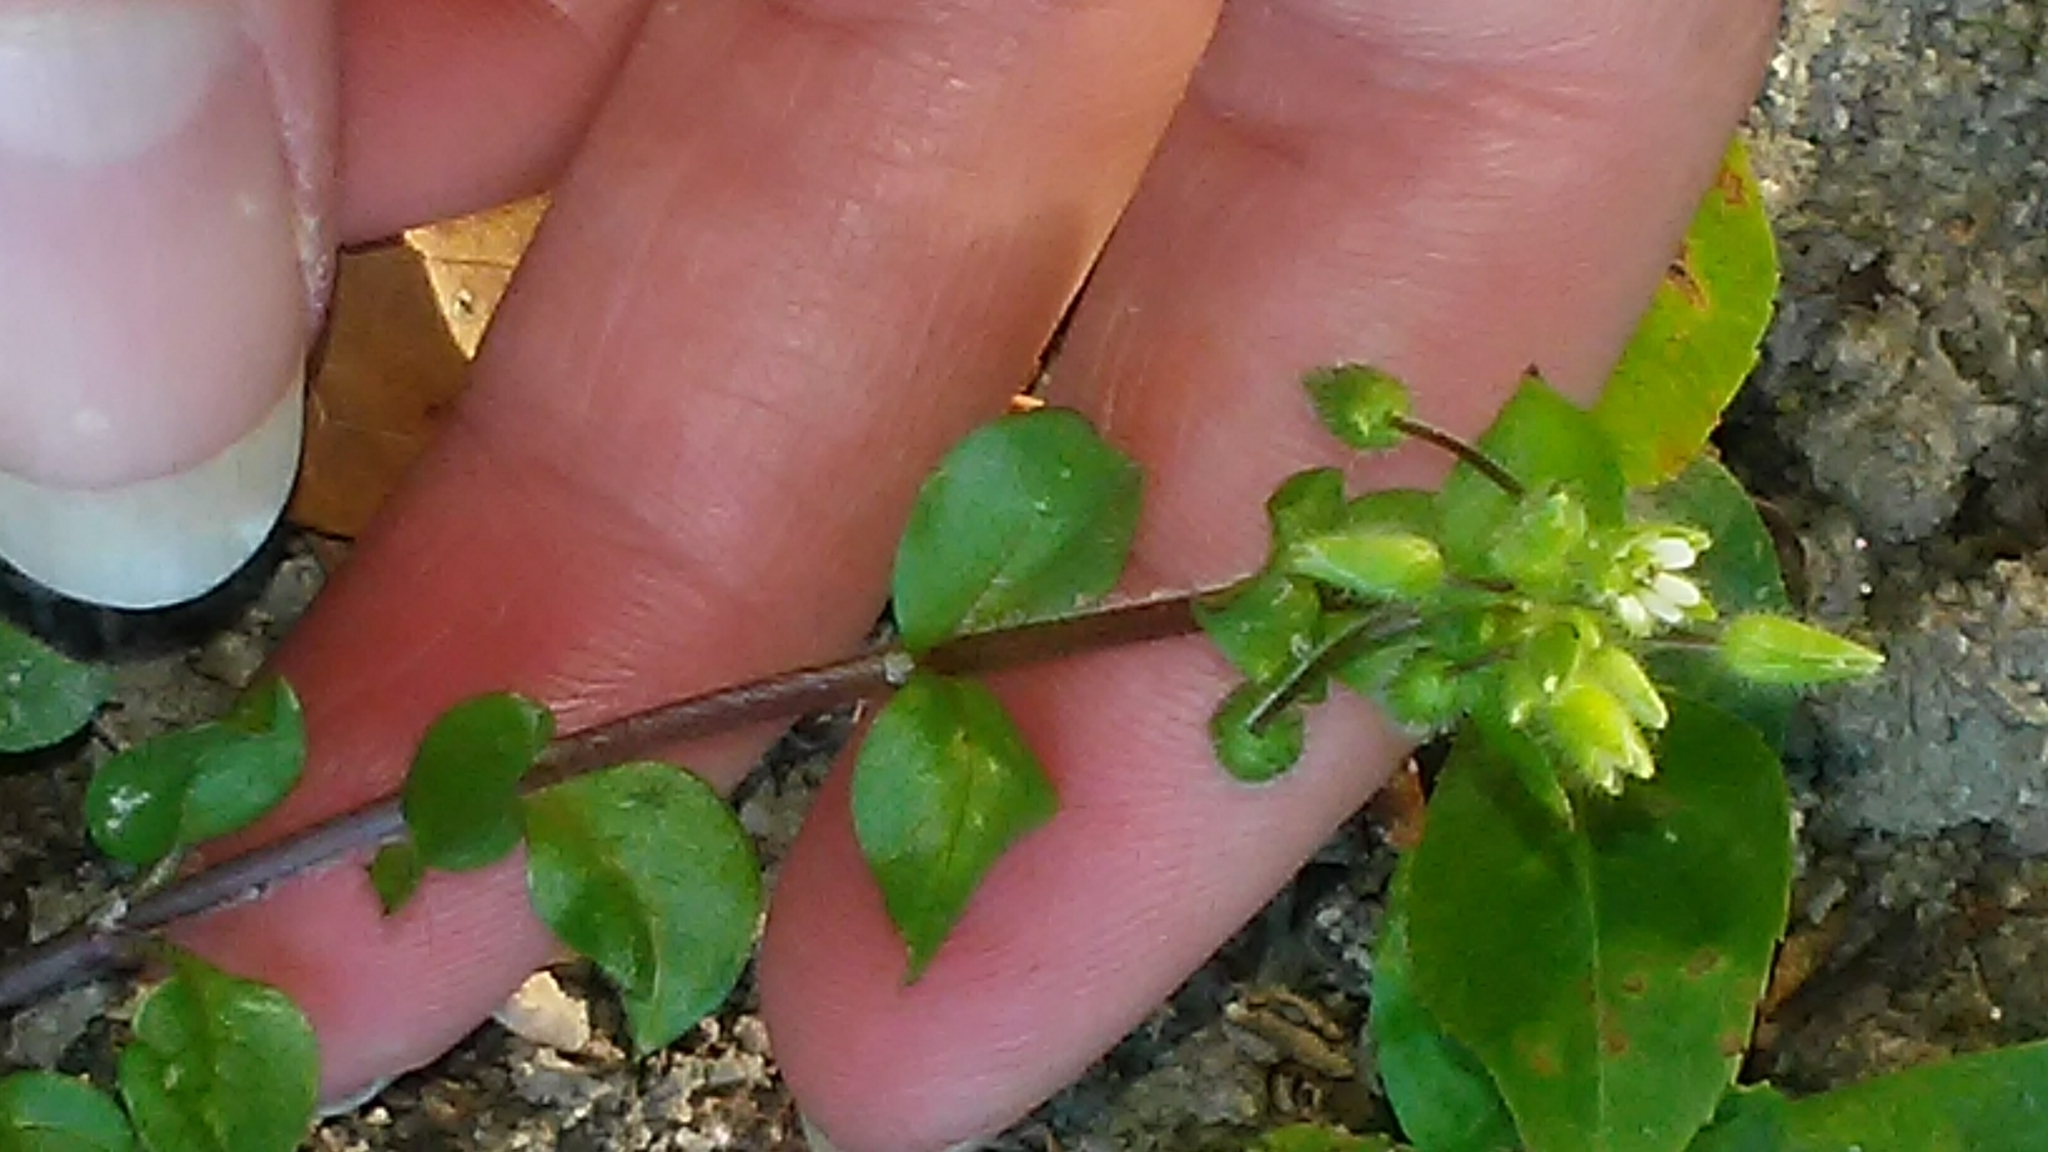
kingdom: Plantae
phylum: Tracheophyta
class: Magnoliopsida
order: Caryophyllales
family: Caryophyllaceae
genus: Stellaria
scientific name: Stellaria media
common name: Common chickweed
